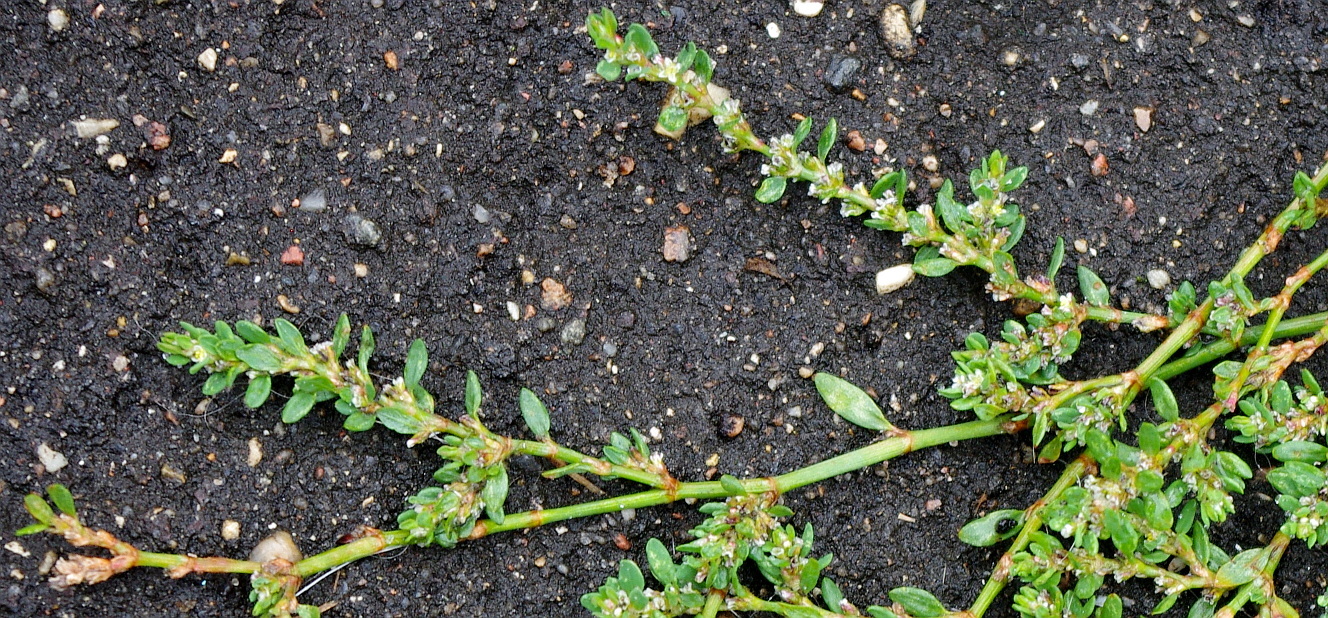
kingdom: Plantae
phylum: Tracheophyta
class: Magnoliopsida
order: Caryophyllales
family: Polygonaceae
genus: Polygonum
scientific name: Polygonum
